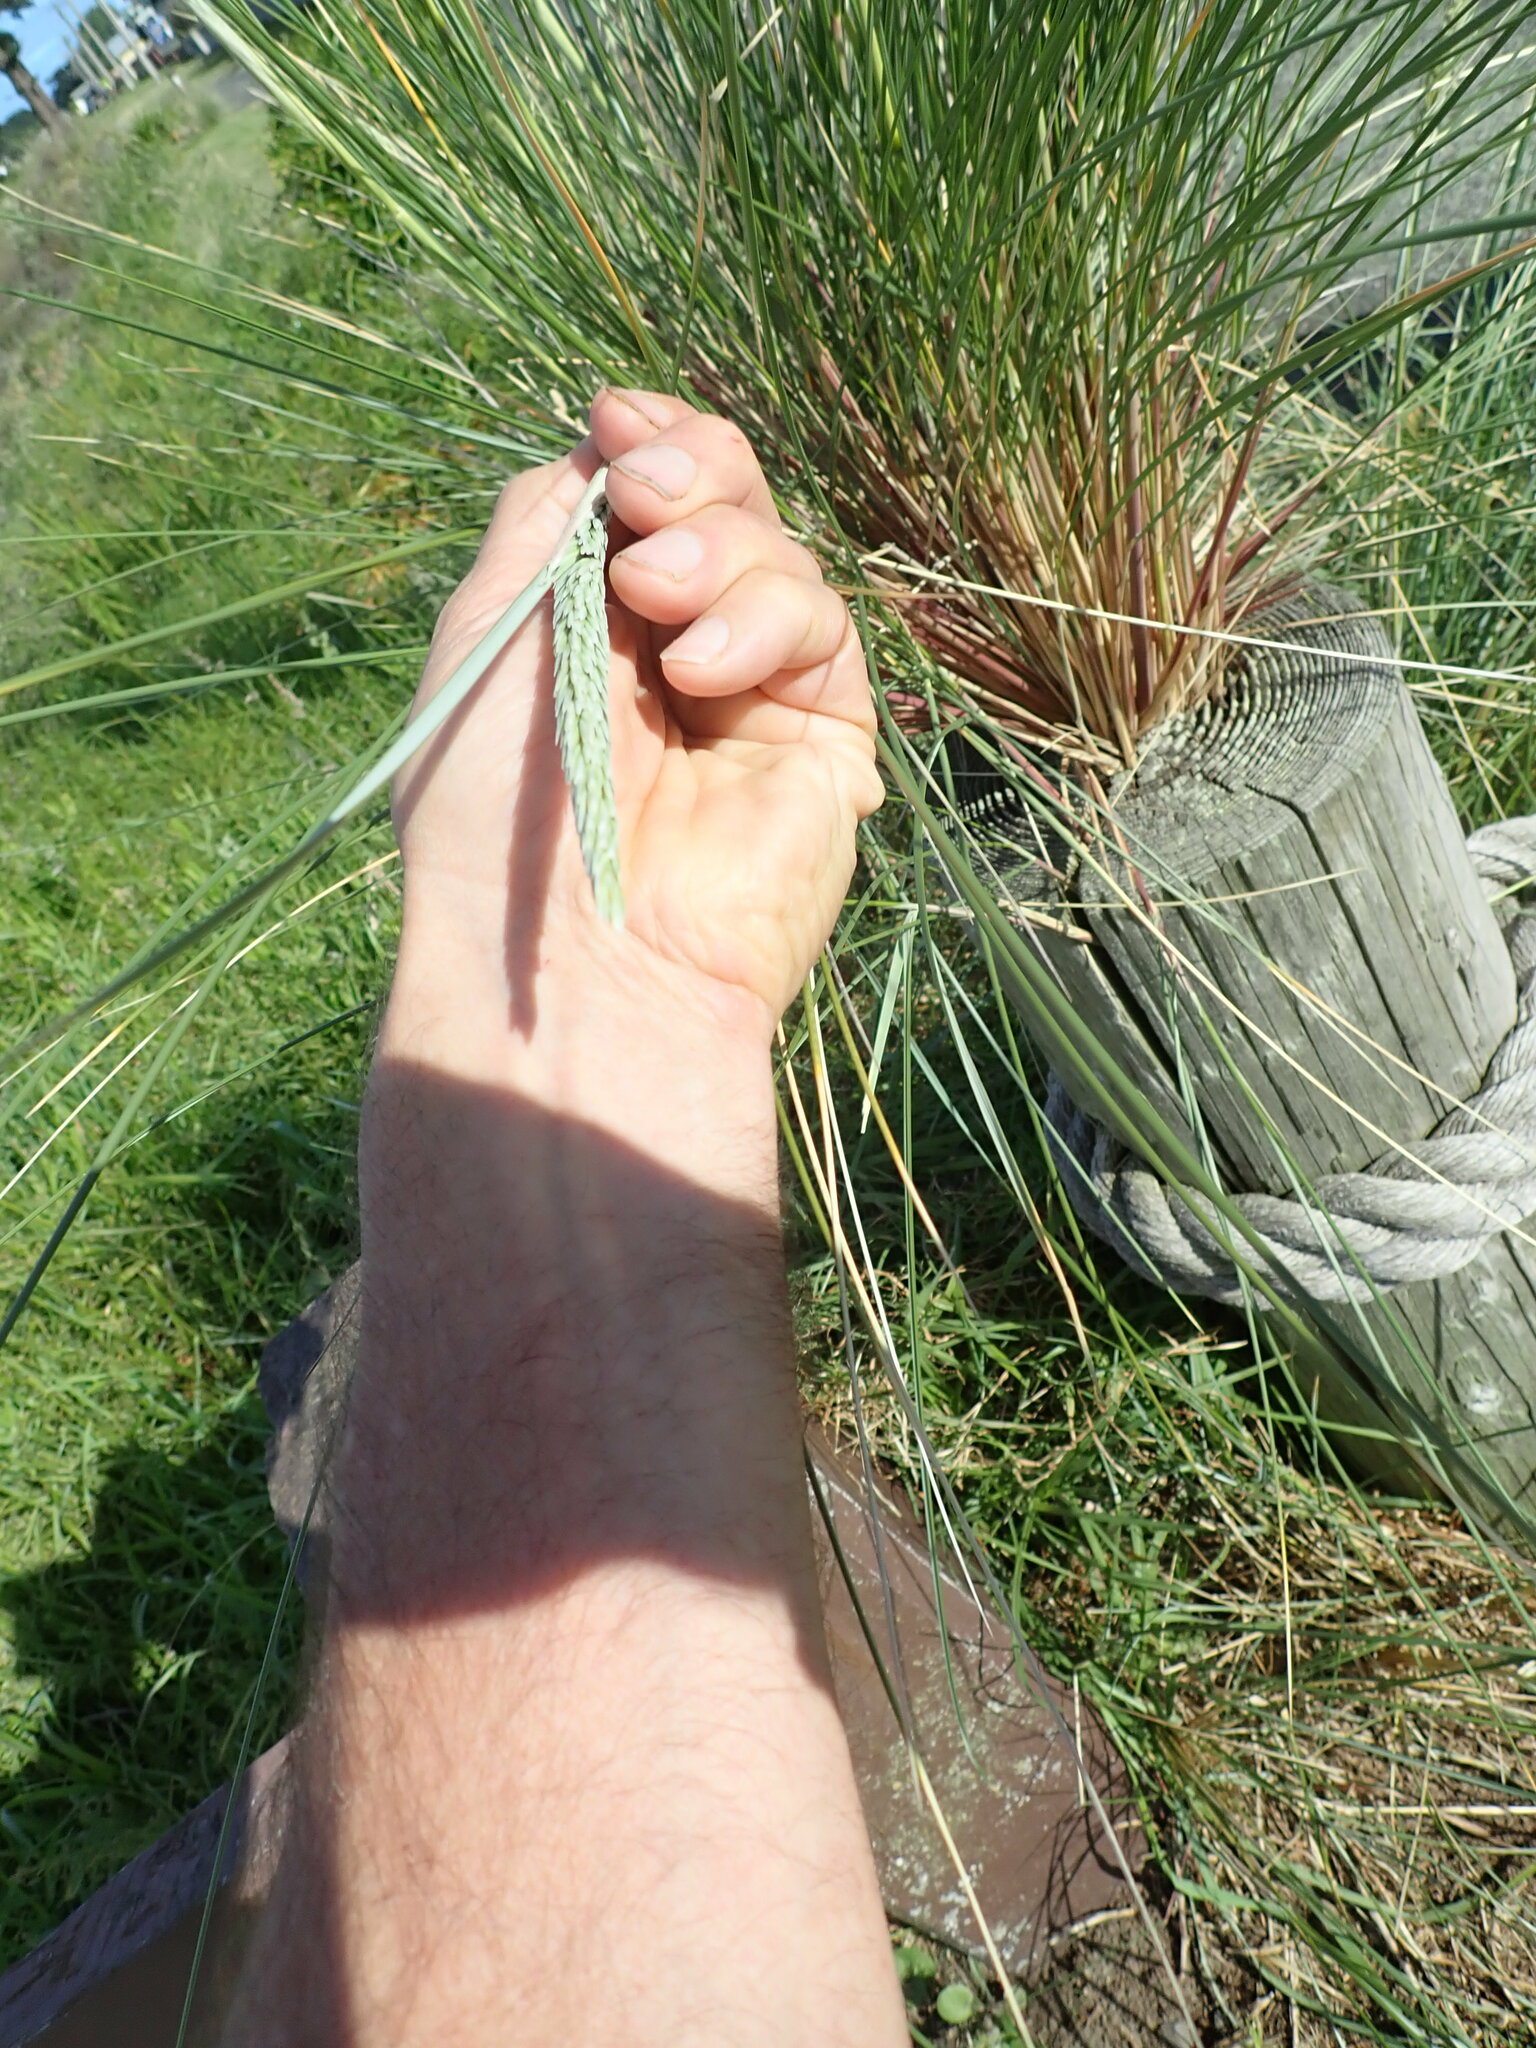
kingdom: Plantae
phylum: Tracheophyta
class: Liliopsida
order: Poales
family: Poaceae
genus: Calamagrostis
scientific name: Calamagrostis arenaria
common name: European beachgrass
